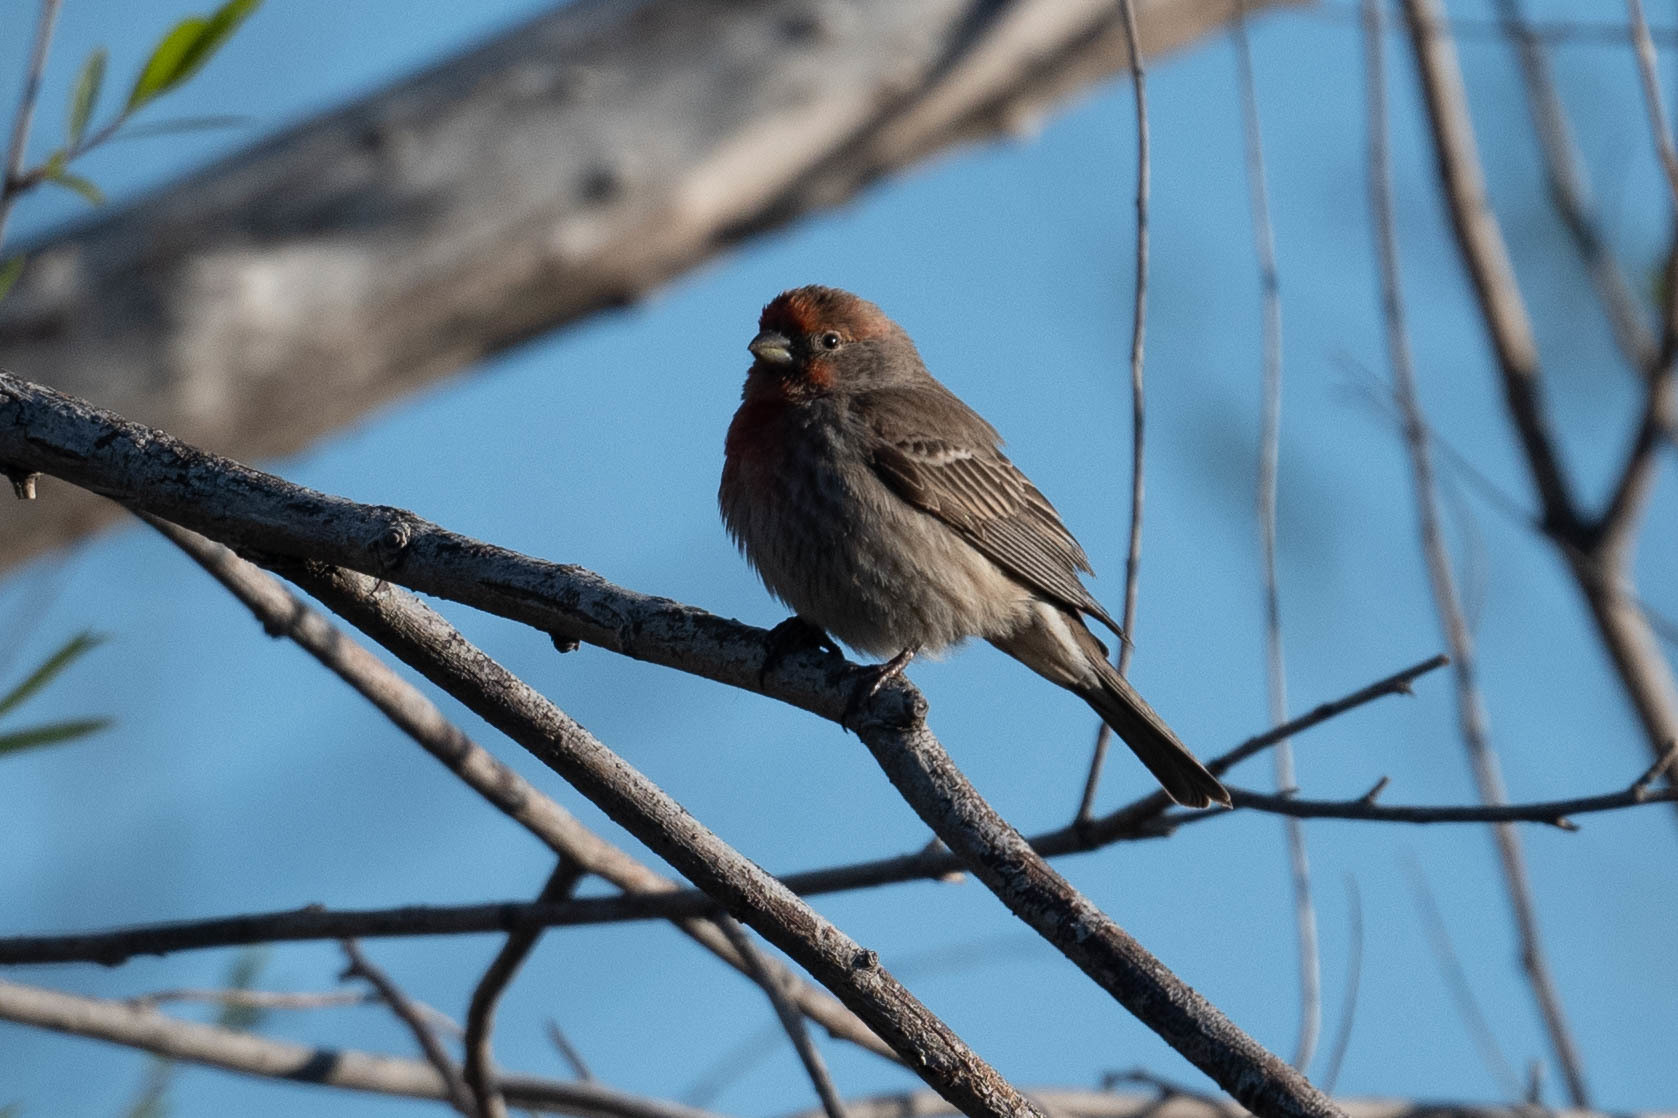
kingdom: Animalia
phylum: Chordata
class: Aves
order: Passeriformes
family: Fringillidae
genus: Haemorhous
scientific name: Haemorhous mexicanus
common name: House finch
